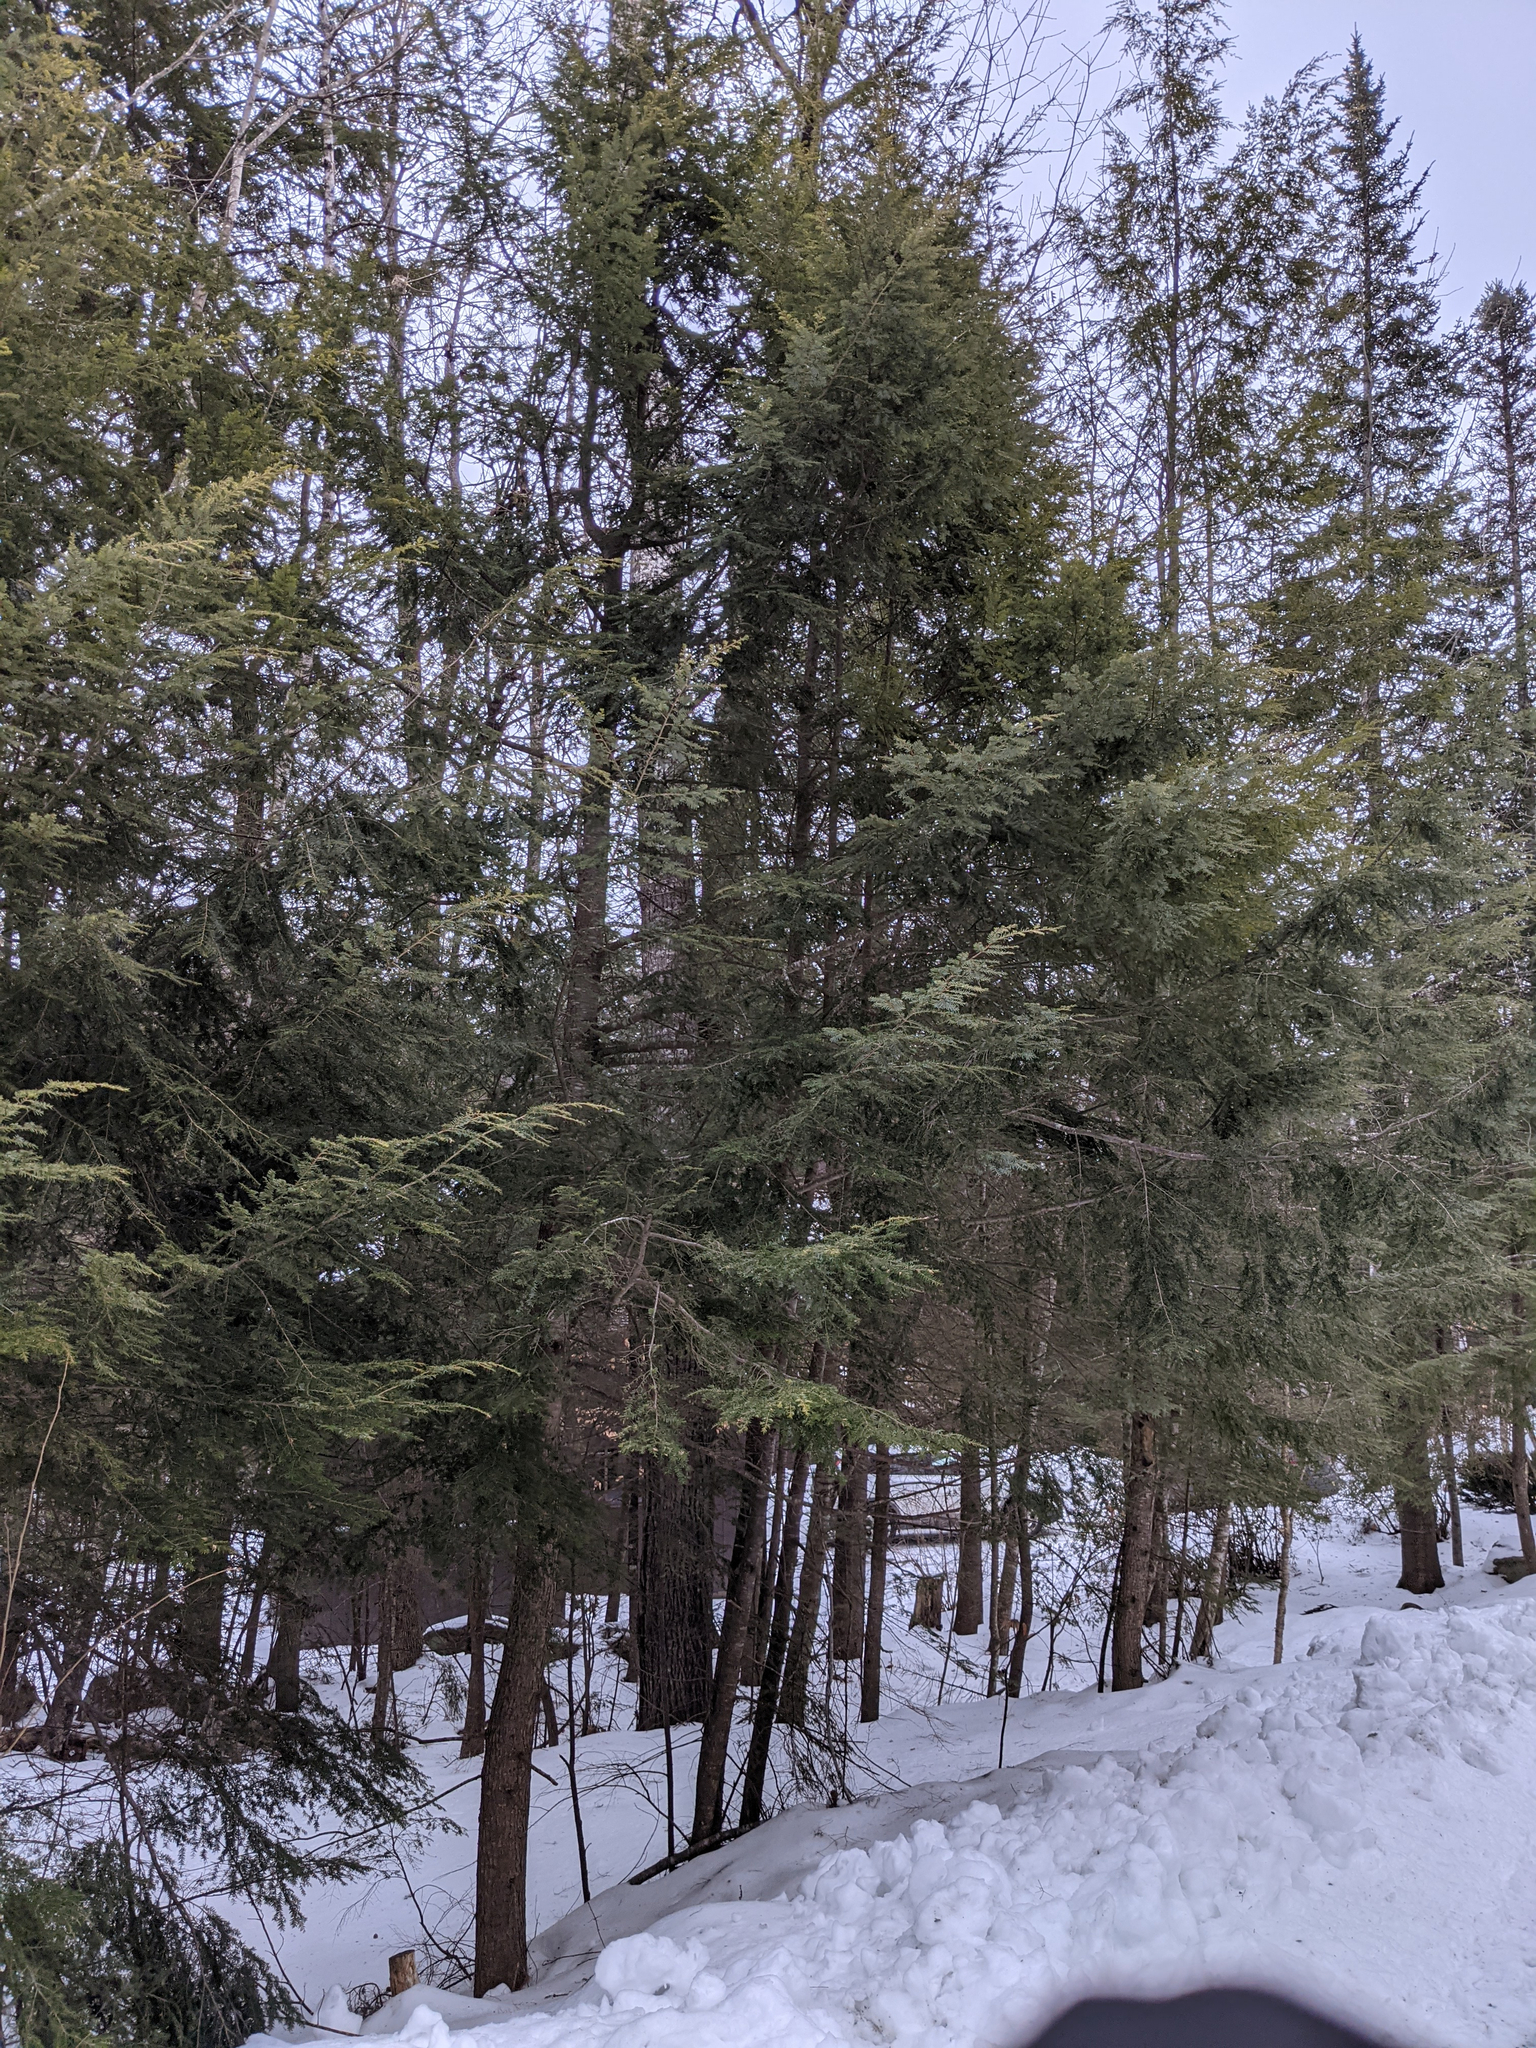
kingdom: Plantae
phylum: Tracheophyta
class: Pinopsida
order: Pinales
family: Pinaceae
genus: Tsuga
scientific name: Tsuga canadensis
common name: Eastern hemlock
